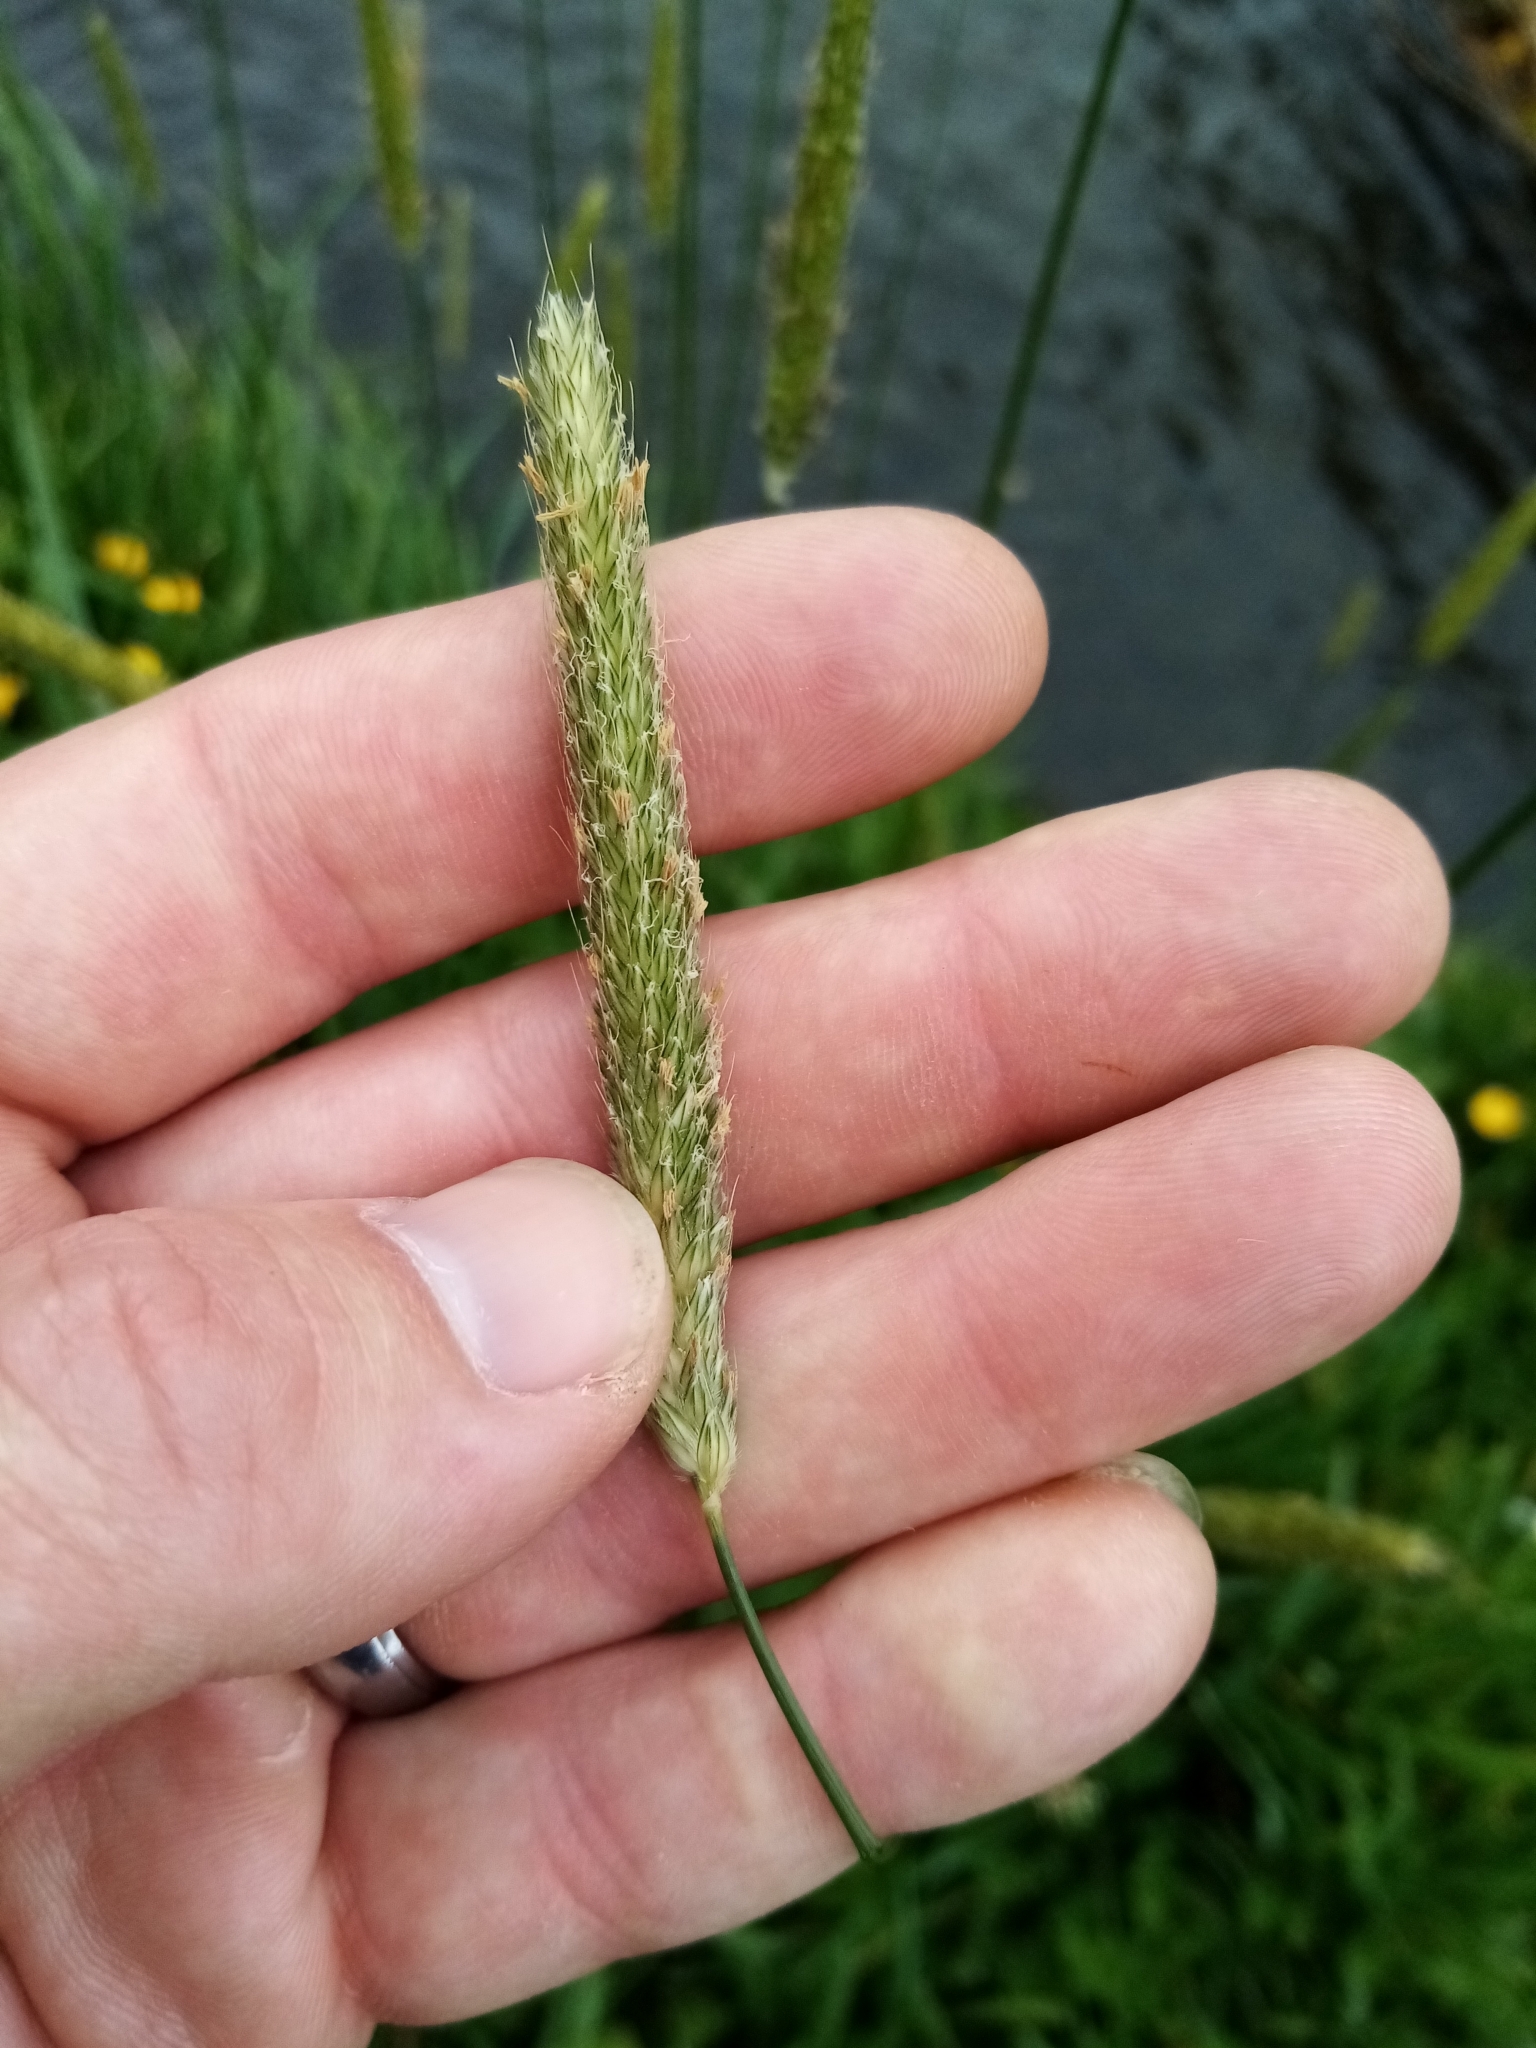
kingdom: Plantae
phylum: Tracheophyta
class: Liliopsida
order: Poales
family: Poaceae
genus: Alopecurus
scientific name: Alopecurus pratensis
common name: Meadow foxtail
